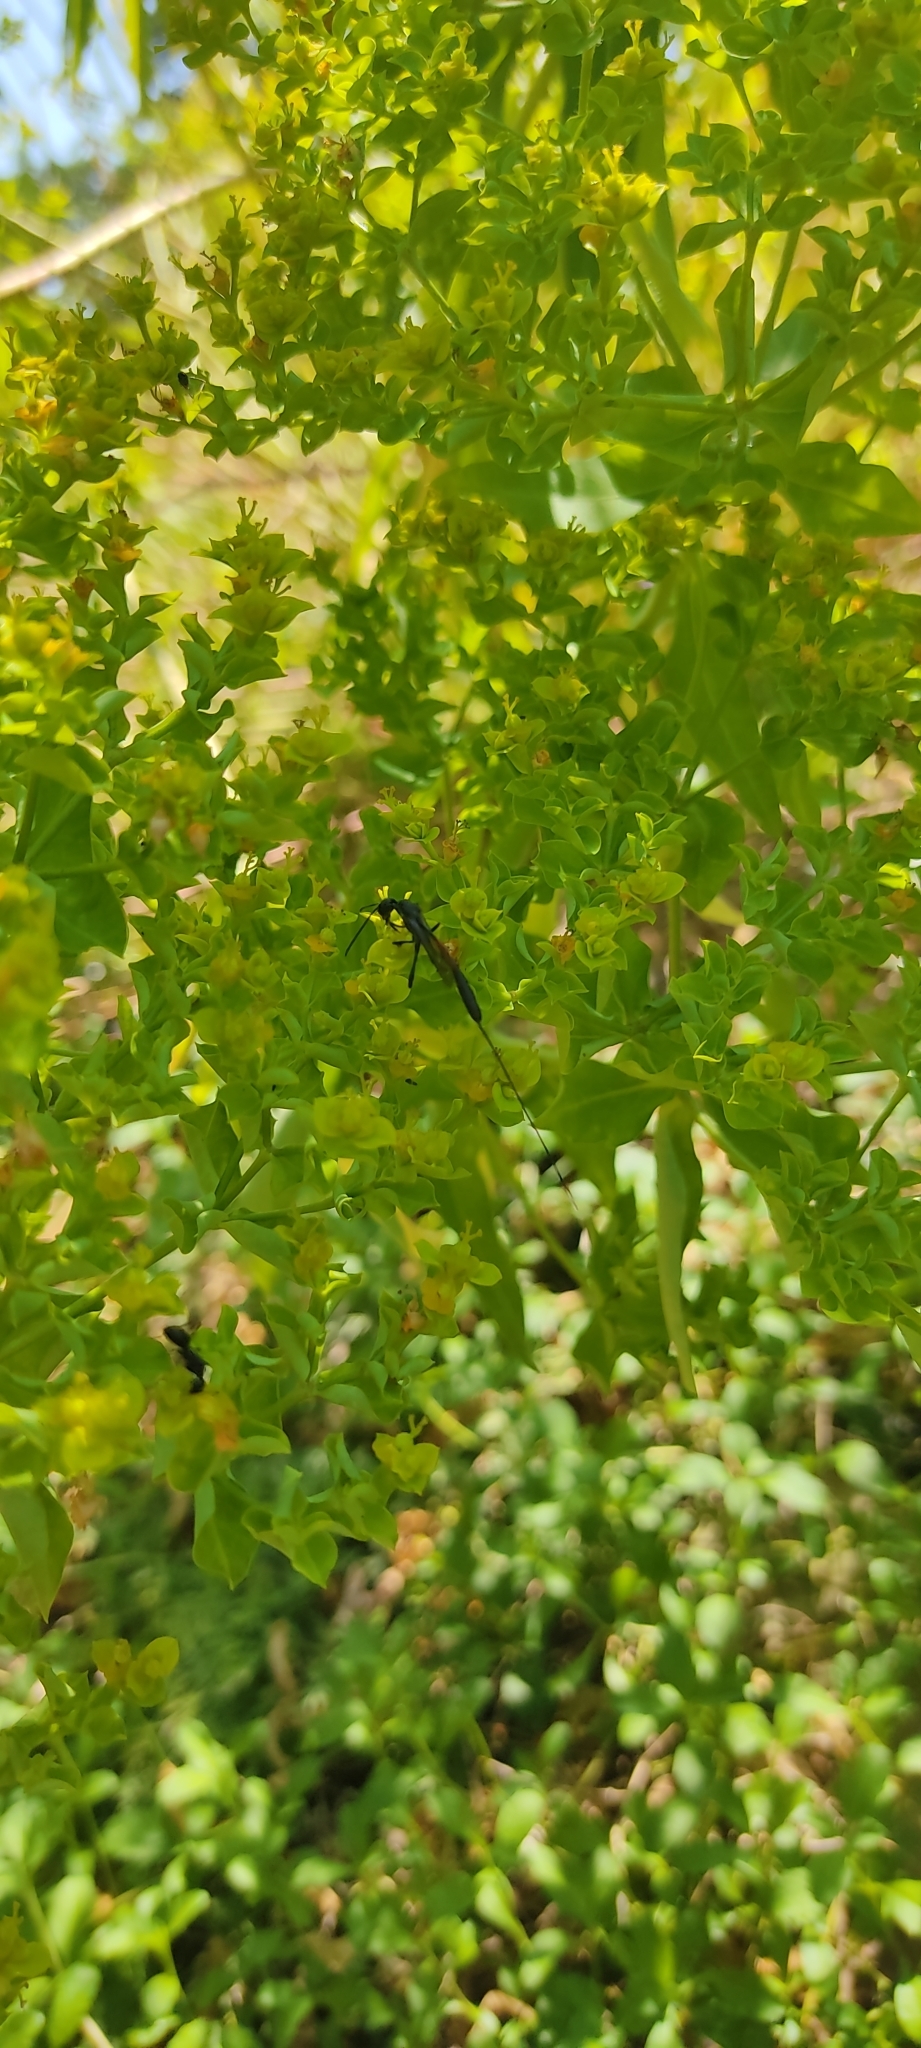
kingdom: Animalia
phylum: Arthropoda
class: Insecta
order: Hymenoptera
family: Gasteruptiidae
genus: Gasteruption
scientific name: Gasteruption caucasicum
